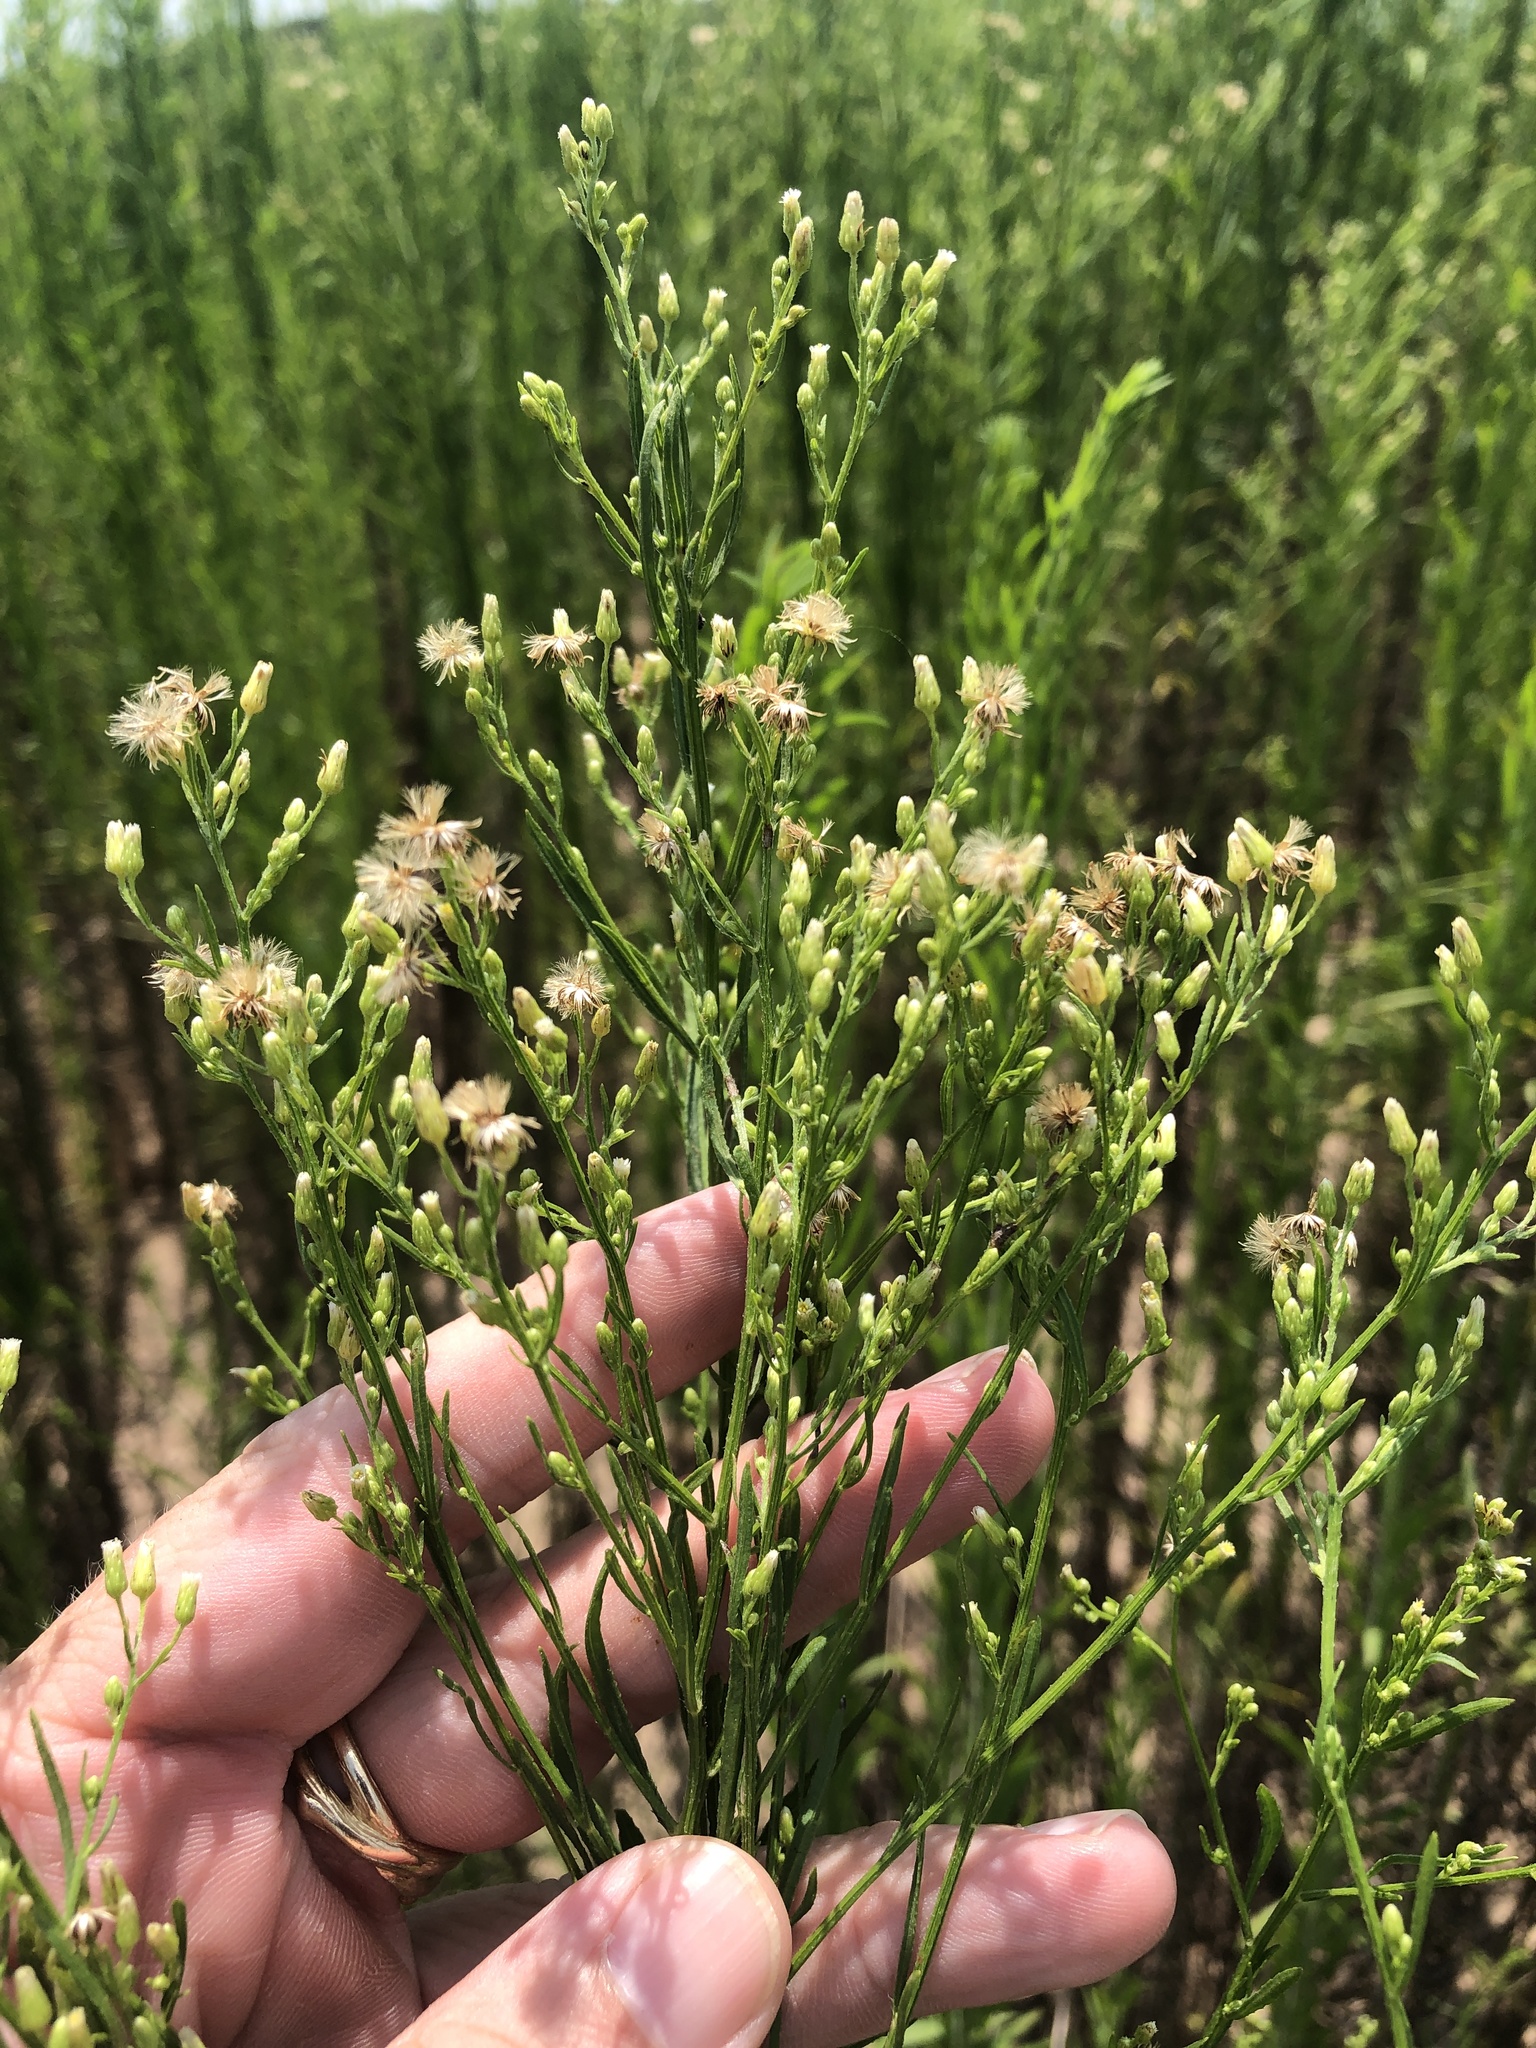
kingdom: Plantae
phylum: Tracheophyta
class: Magnoliopsida
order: Asterales
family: Asteraceae
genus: Erigeron
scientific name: Erigeron canadensis
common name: Canadian fleabane
